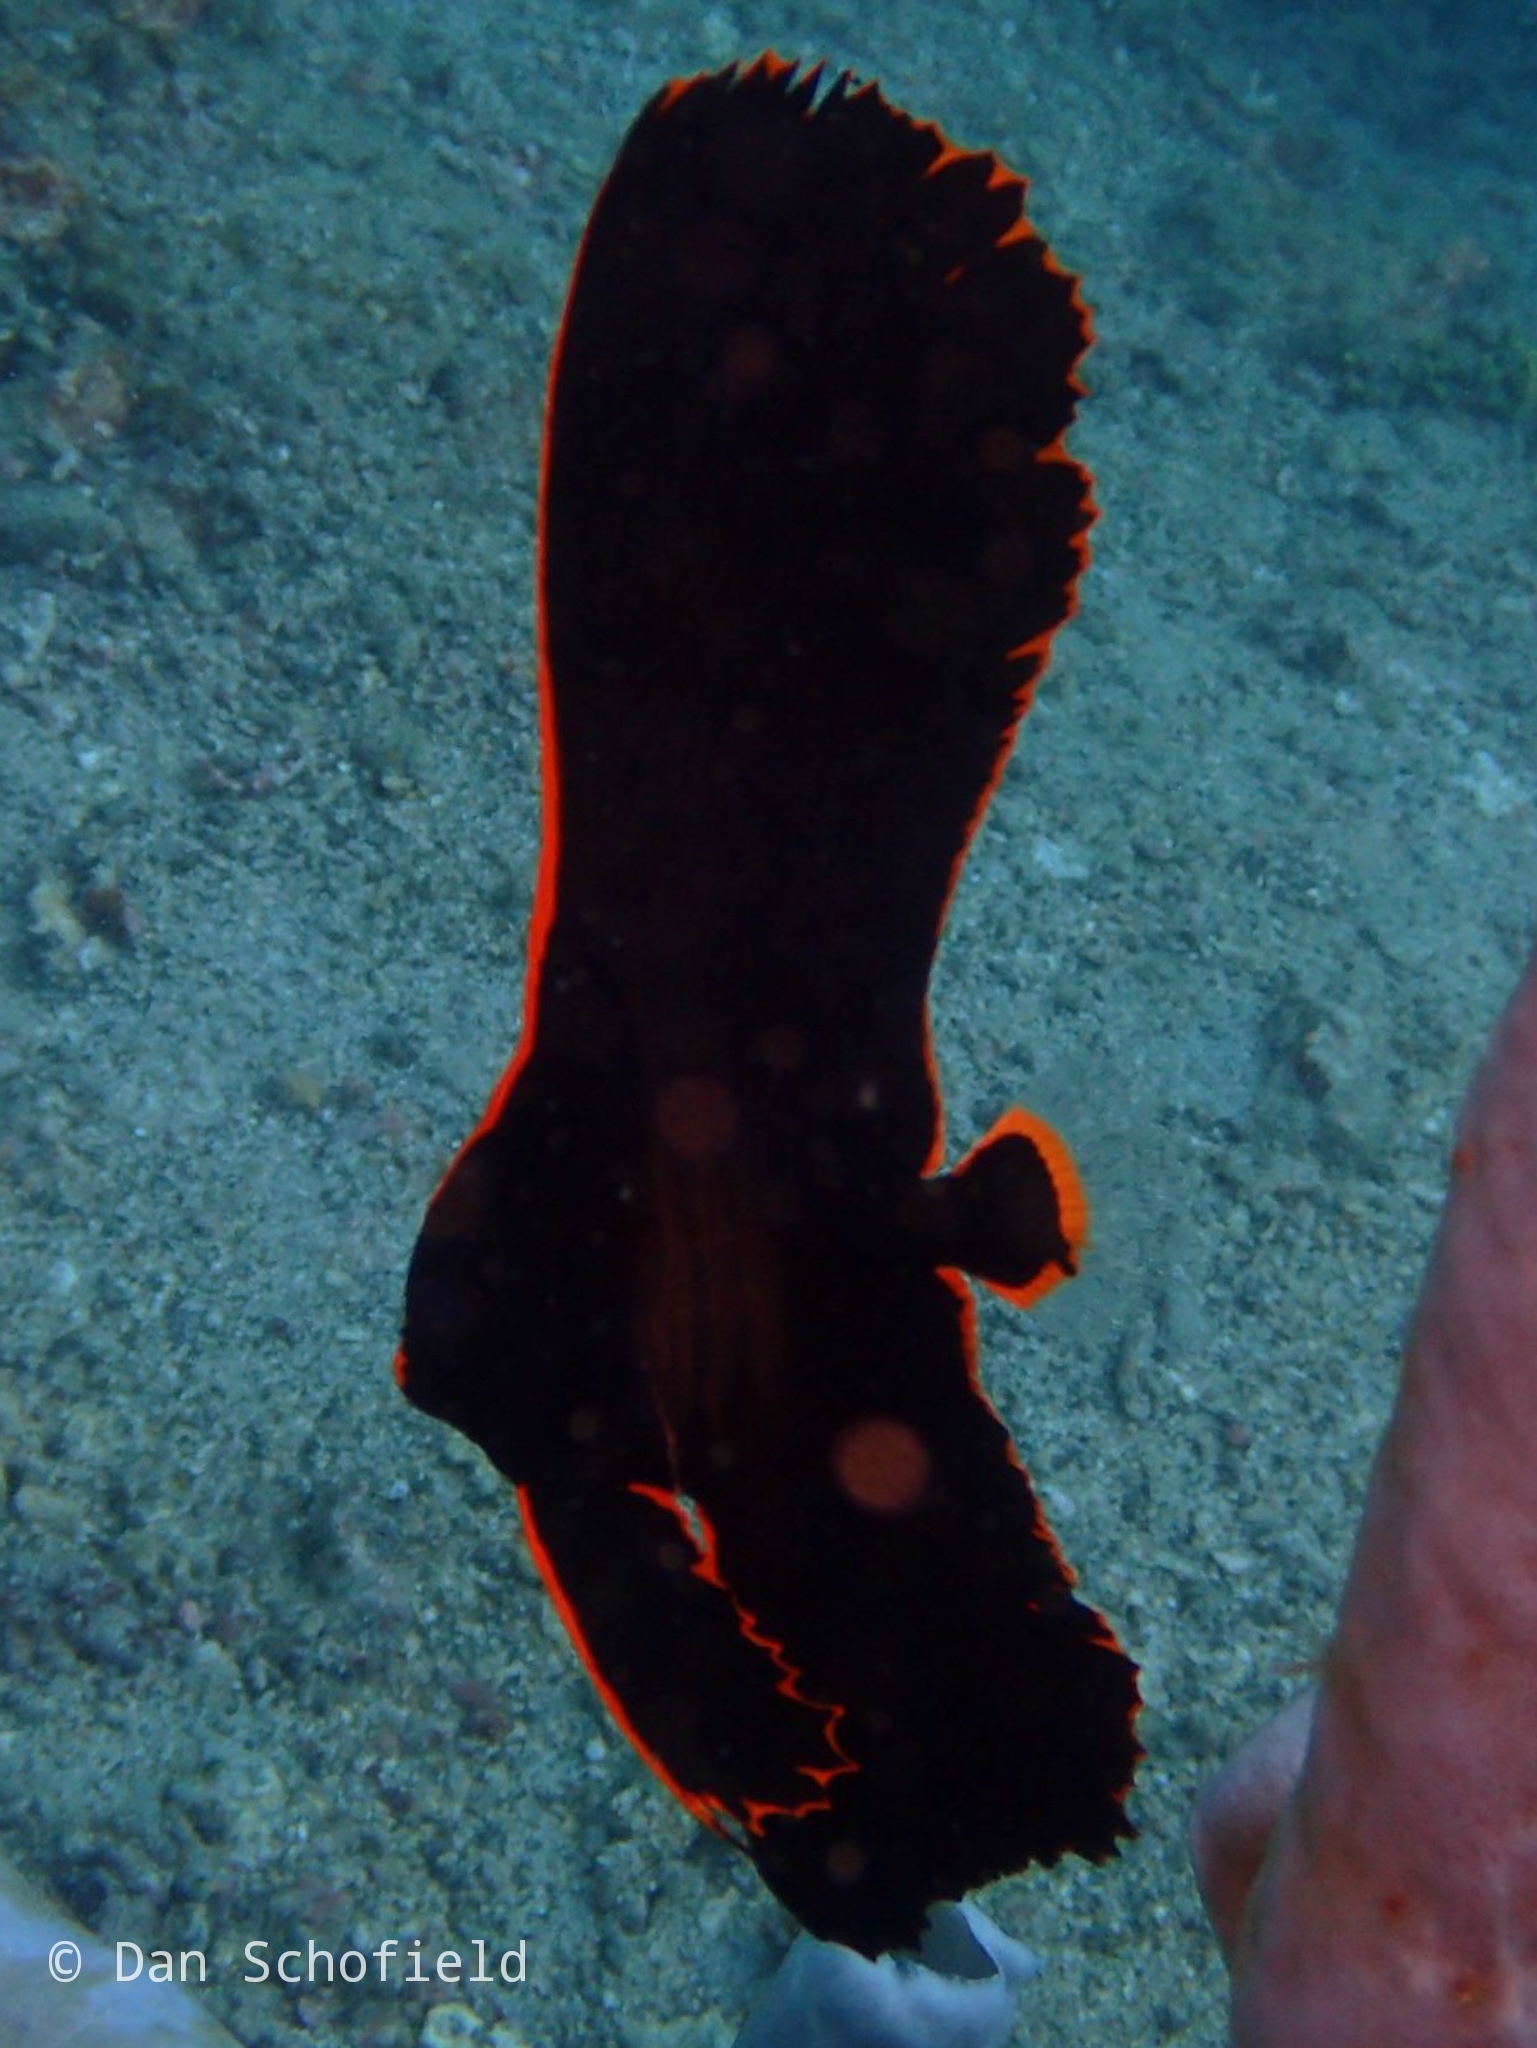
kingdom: Animalia
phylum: Chordata
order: Perciformes
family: Ephippidae
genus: Platax
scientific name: Platax pinnatus
